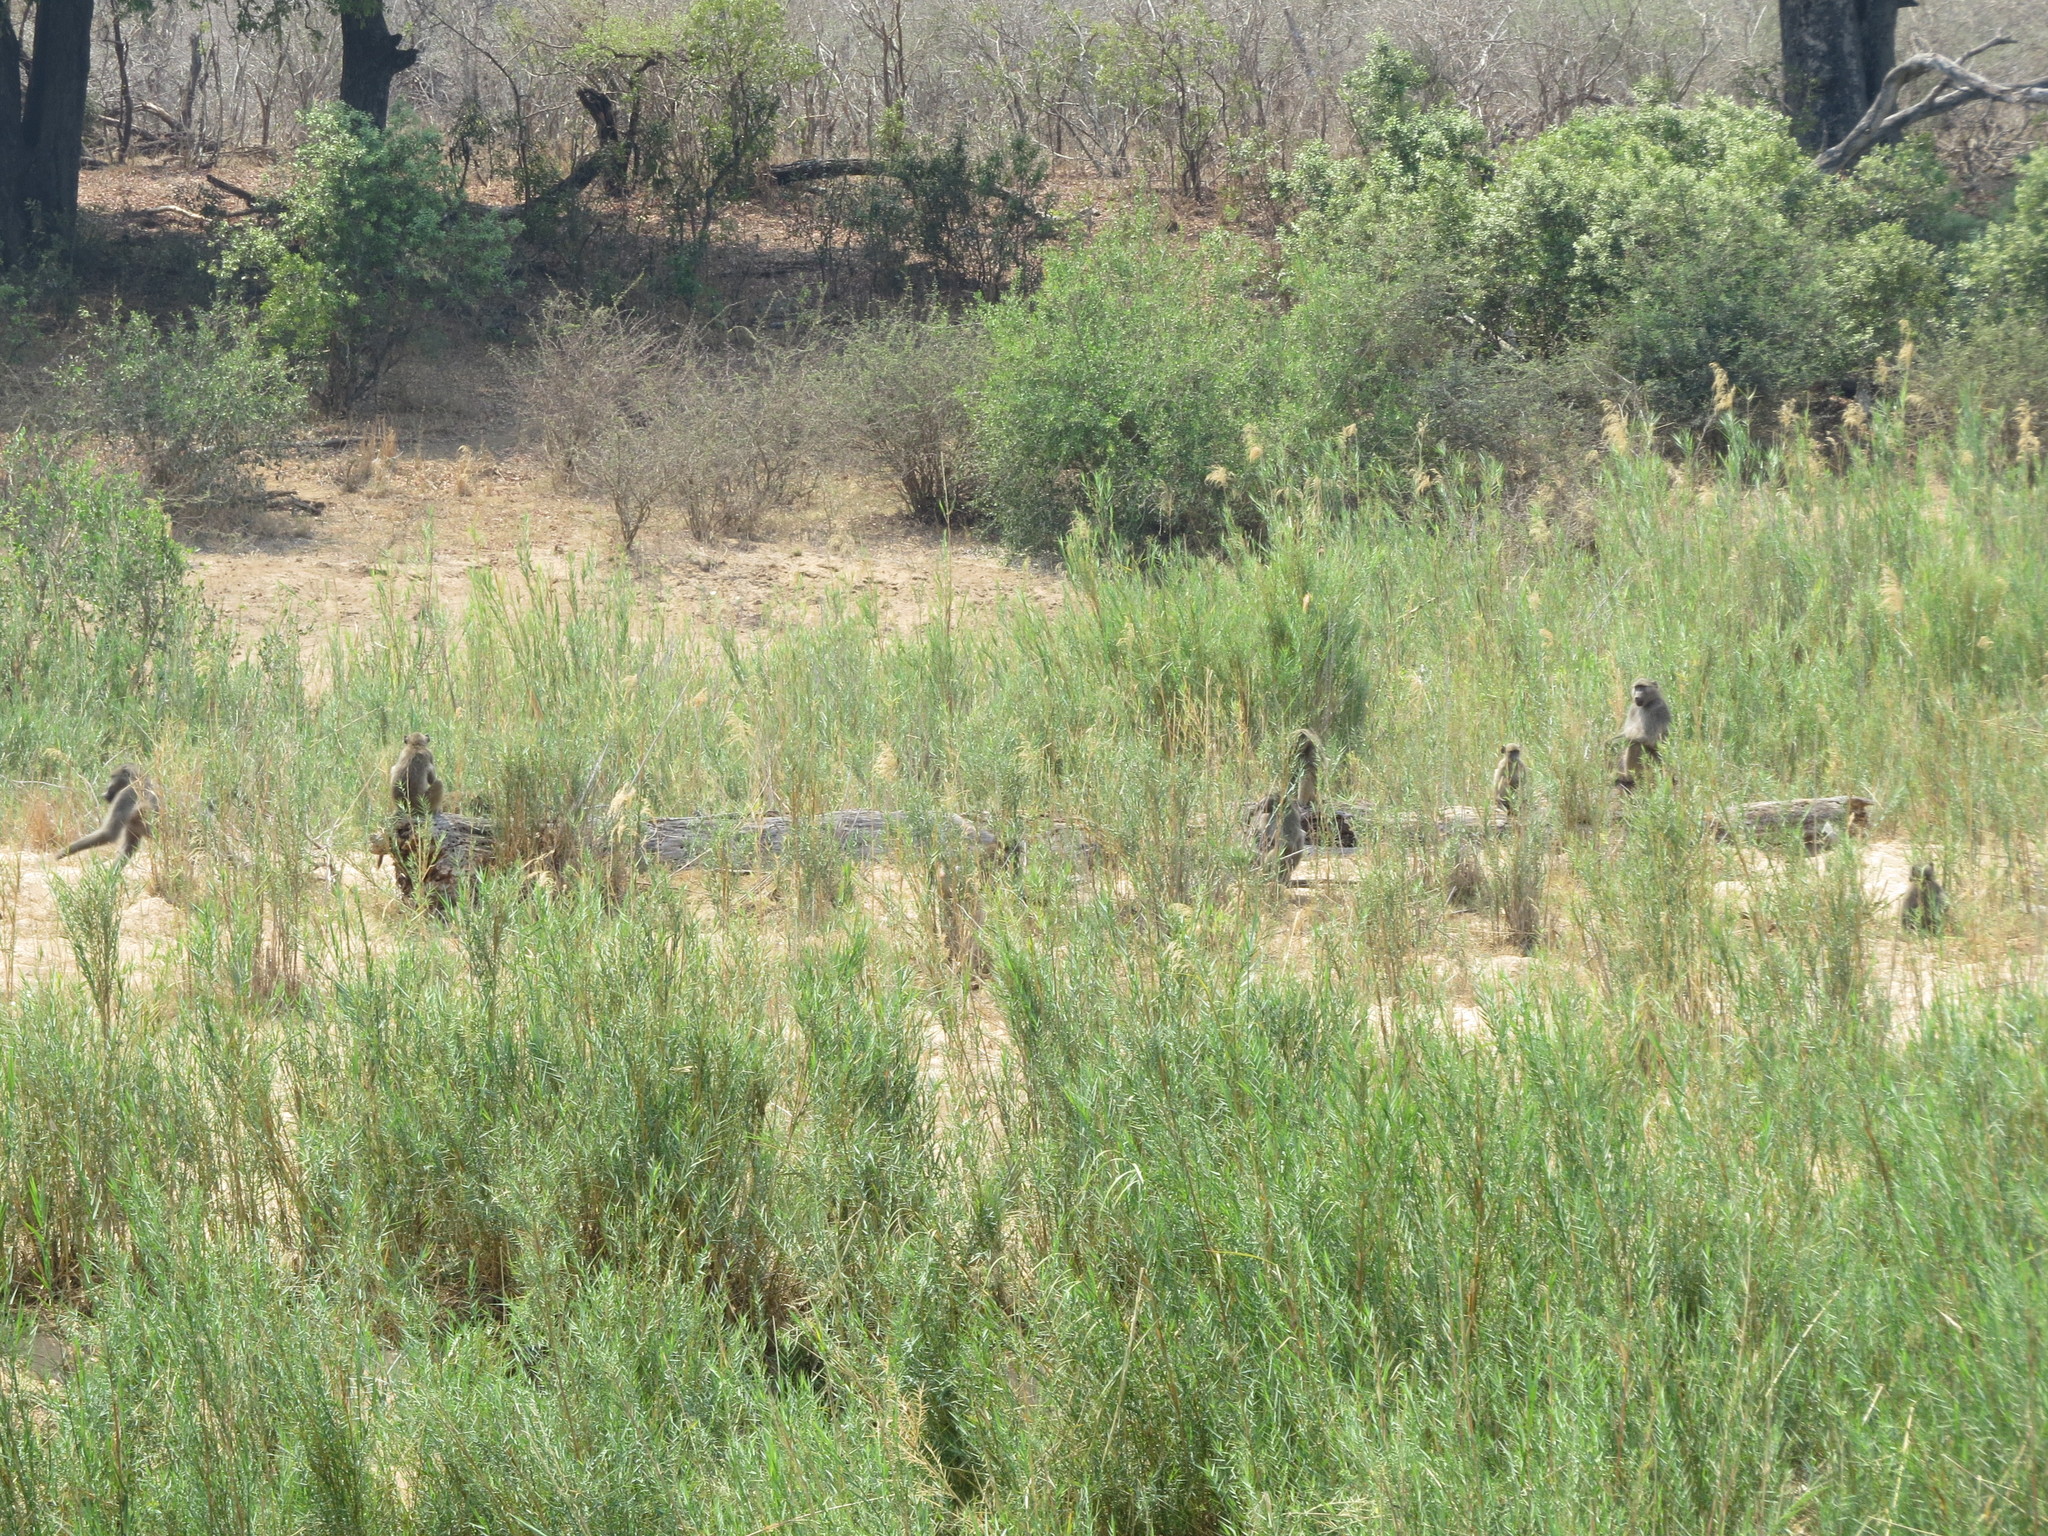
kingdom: Animalia
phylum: Chordata
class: Mammalia
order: Primates
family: Cercopithecidae
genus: Papio
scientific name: Papio ursinus
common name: Chacma baboon
